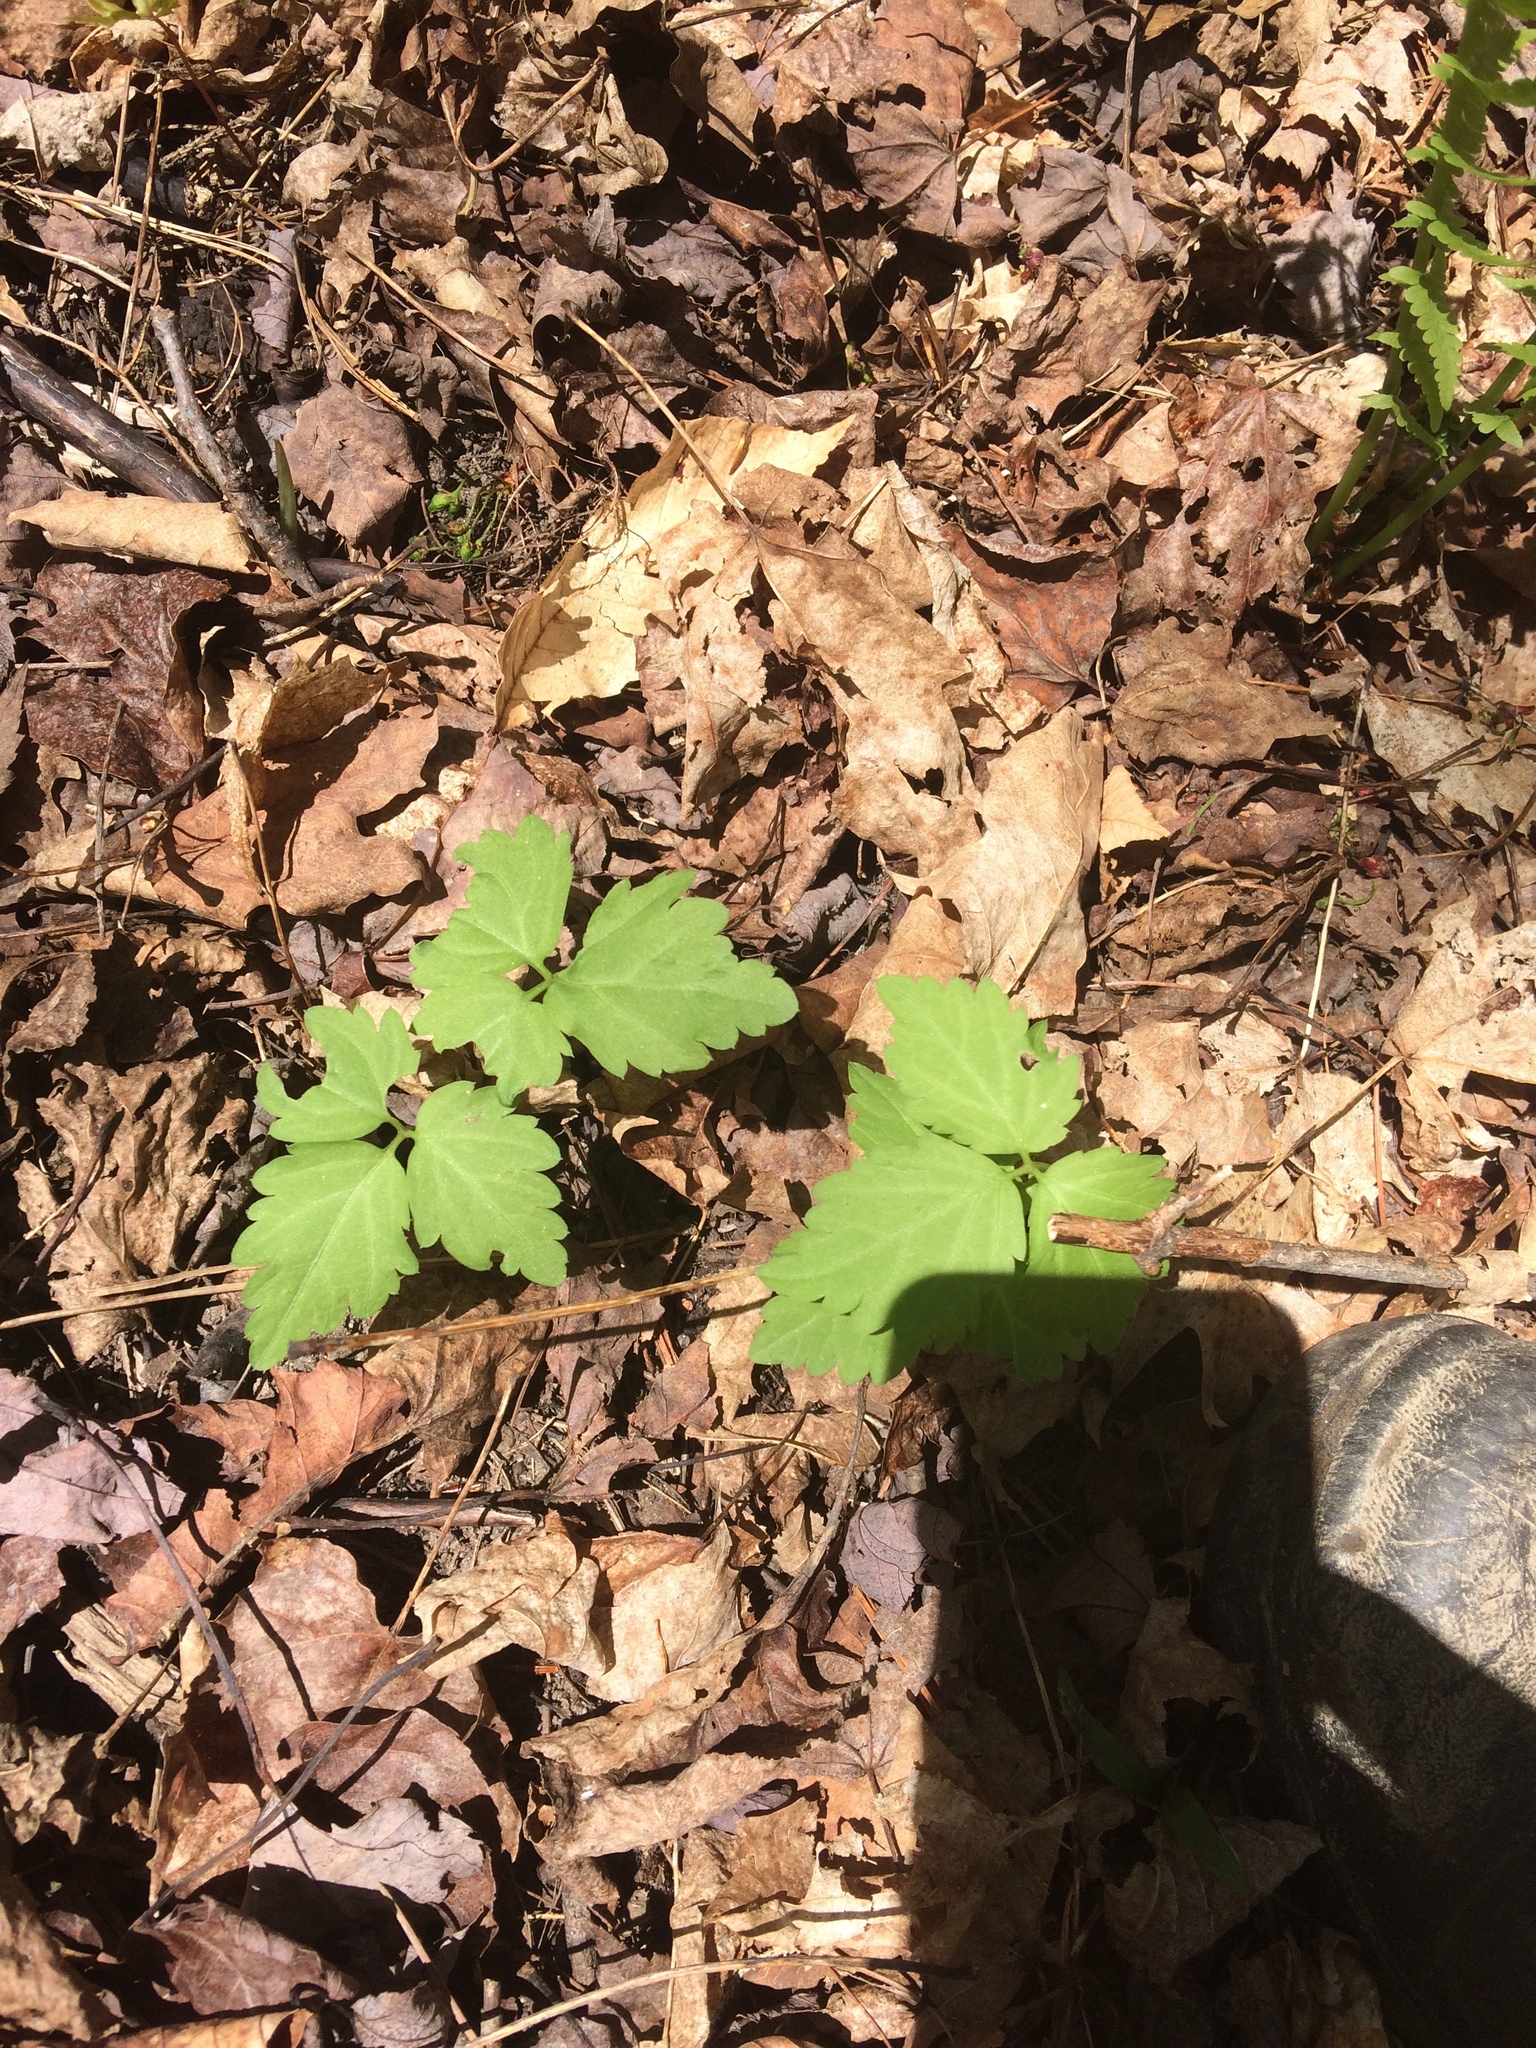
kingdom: Plantae
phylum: Tracheophyta
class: Magnoliopsida
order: Brassicales
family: Brassicaceae
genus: Cardamine
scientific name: Cardamine diphylla
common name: Broad-leaved toothwort
